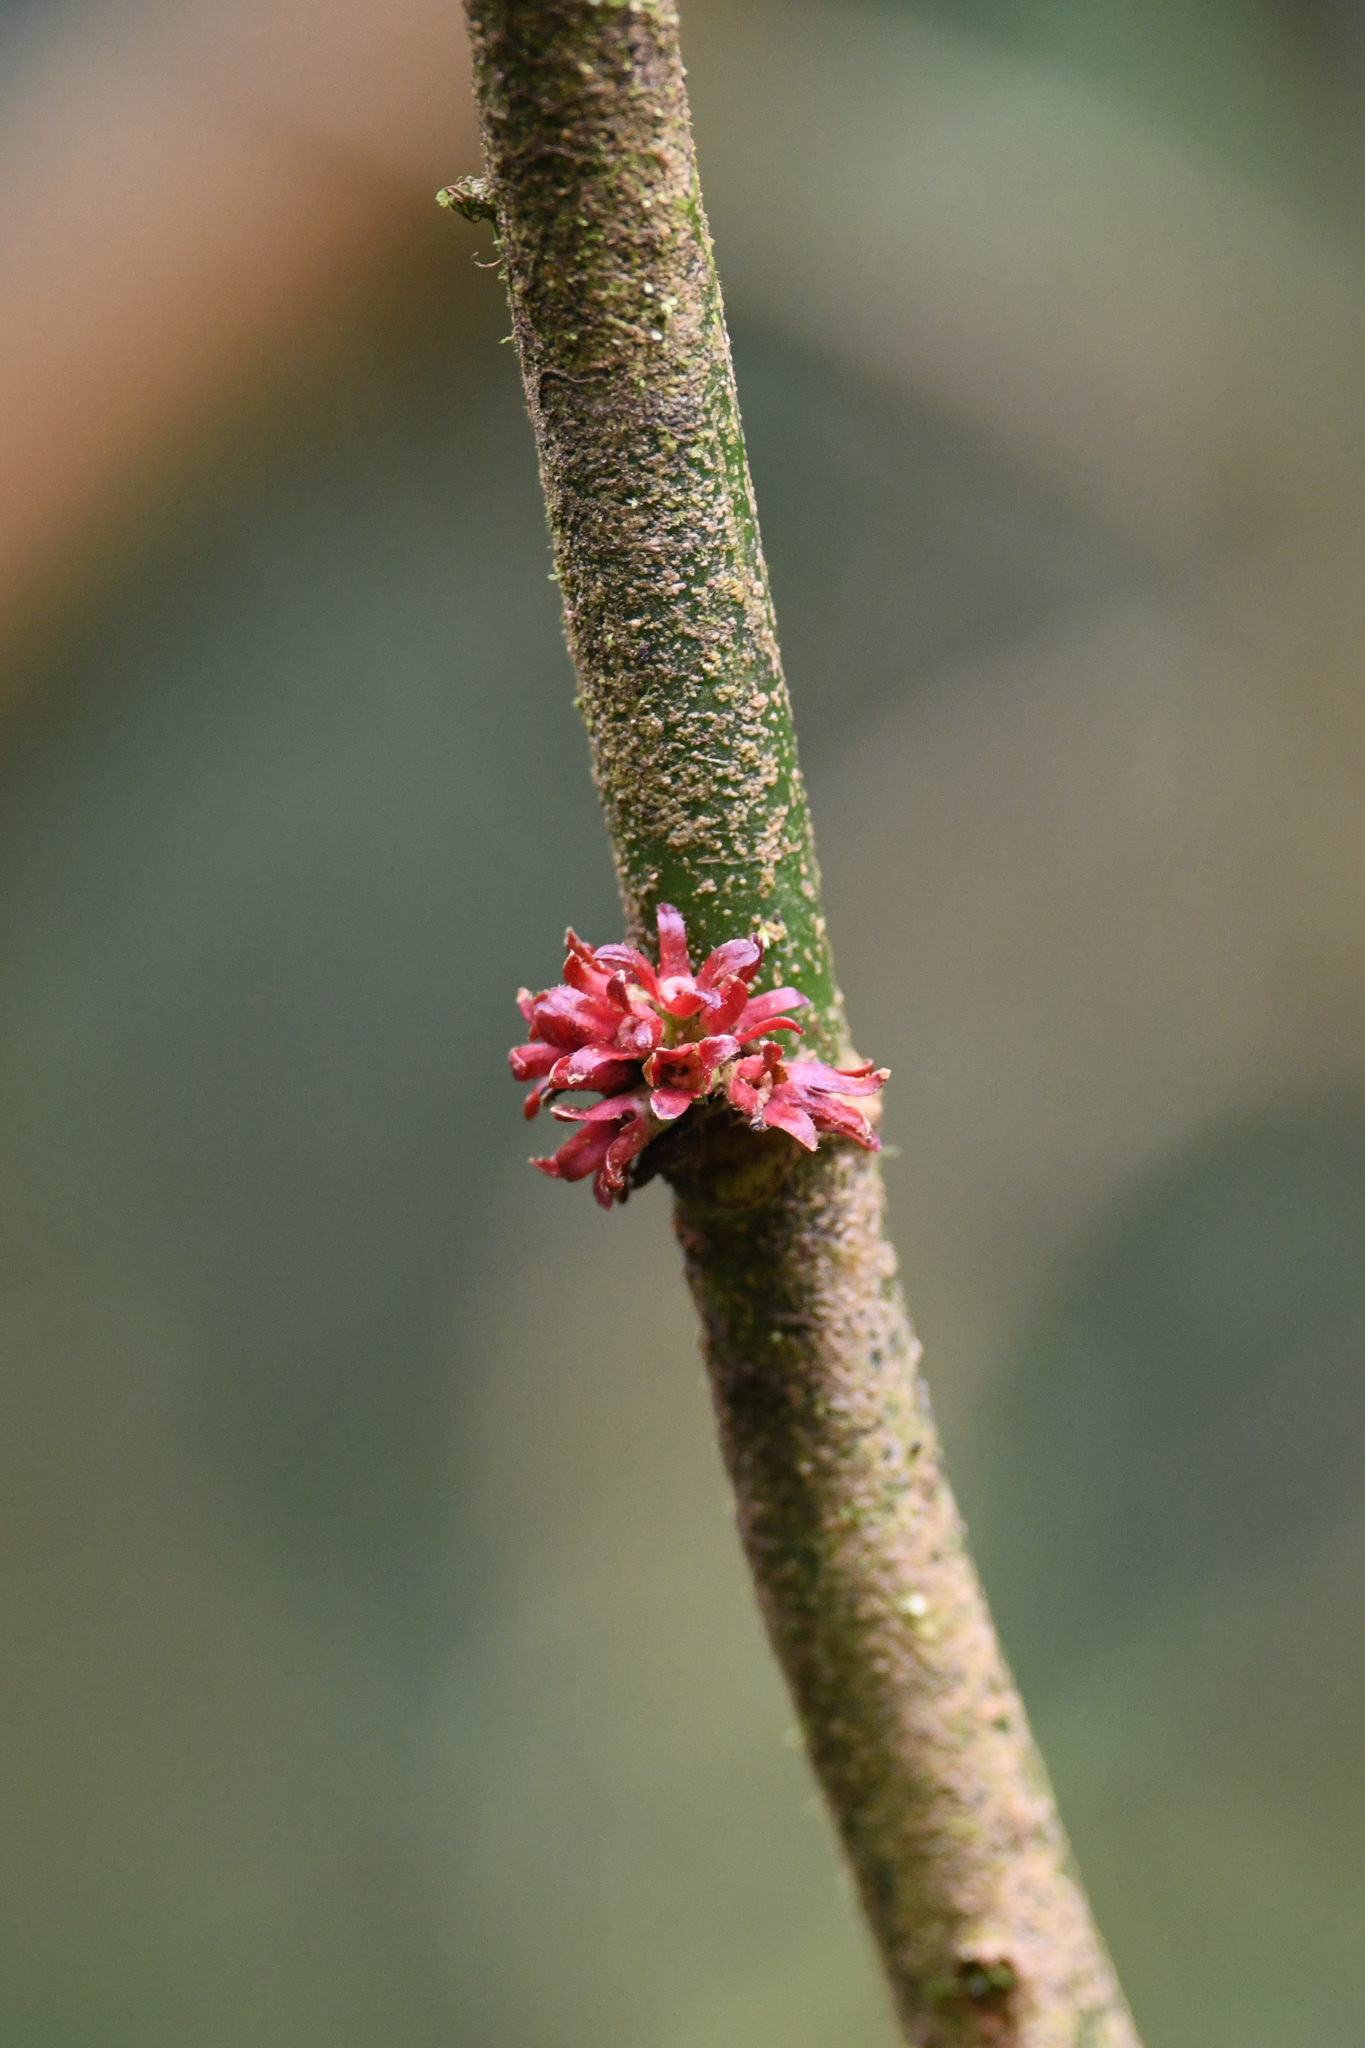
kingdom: Plantae
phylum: Tracheophyta
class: Magnoliopsida
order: Gentianales
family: Rubiaceae
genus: Hoffmannia
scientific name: Hoffmannia congesta
